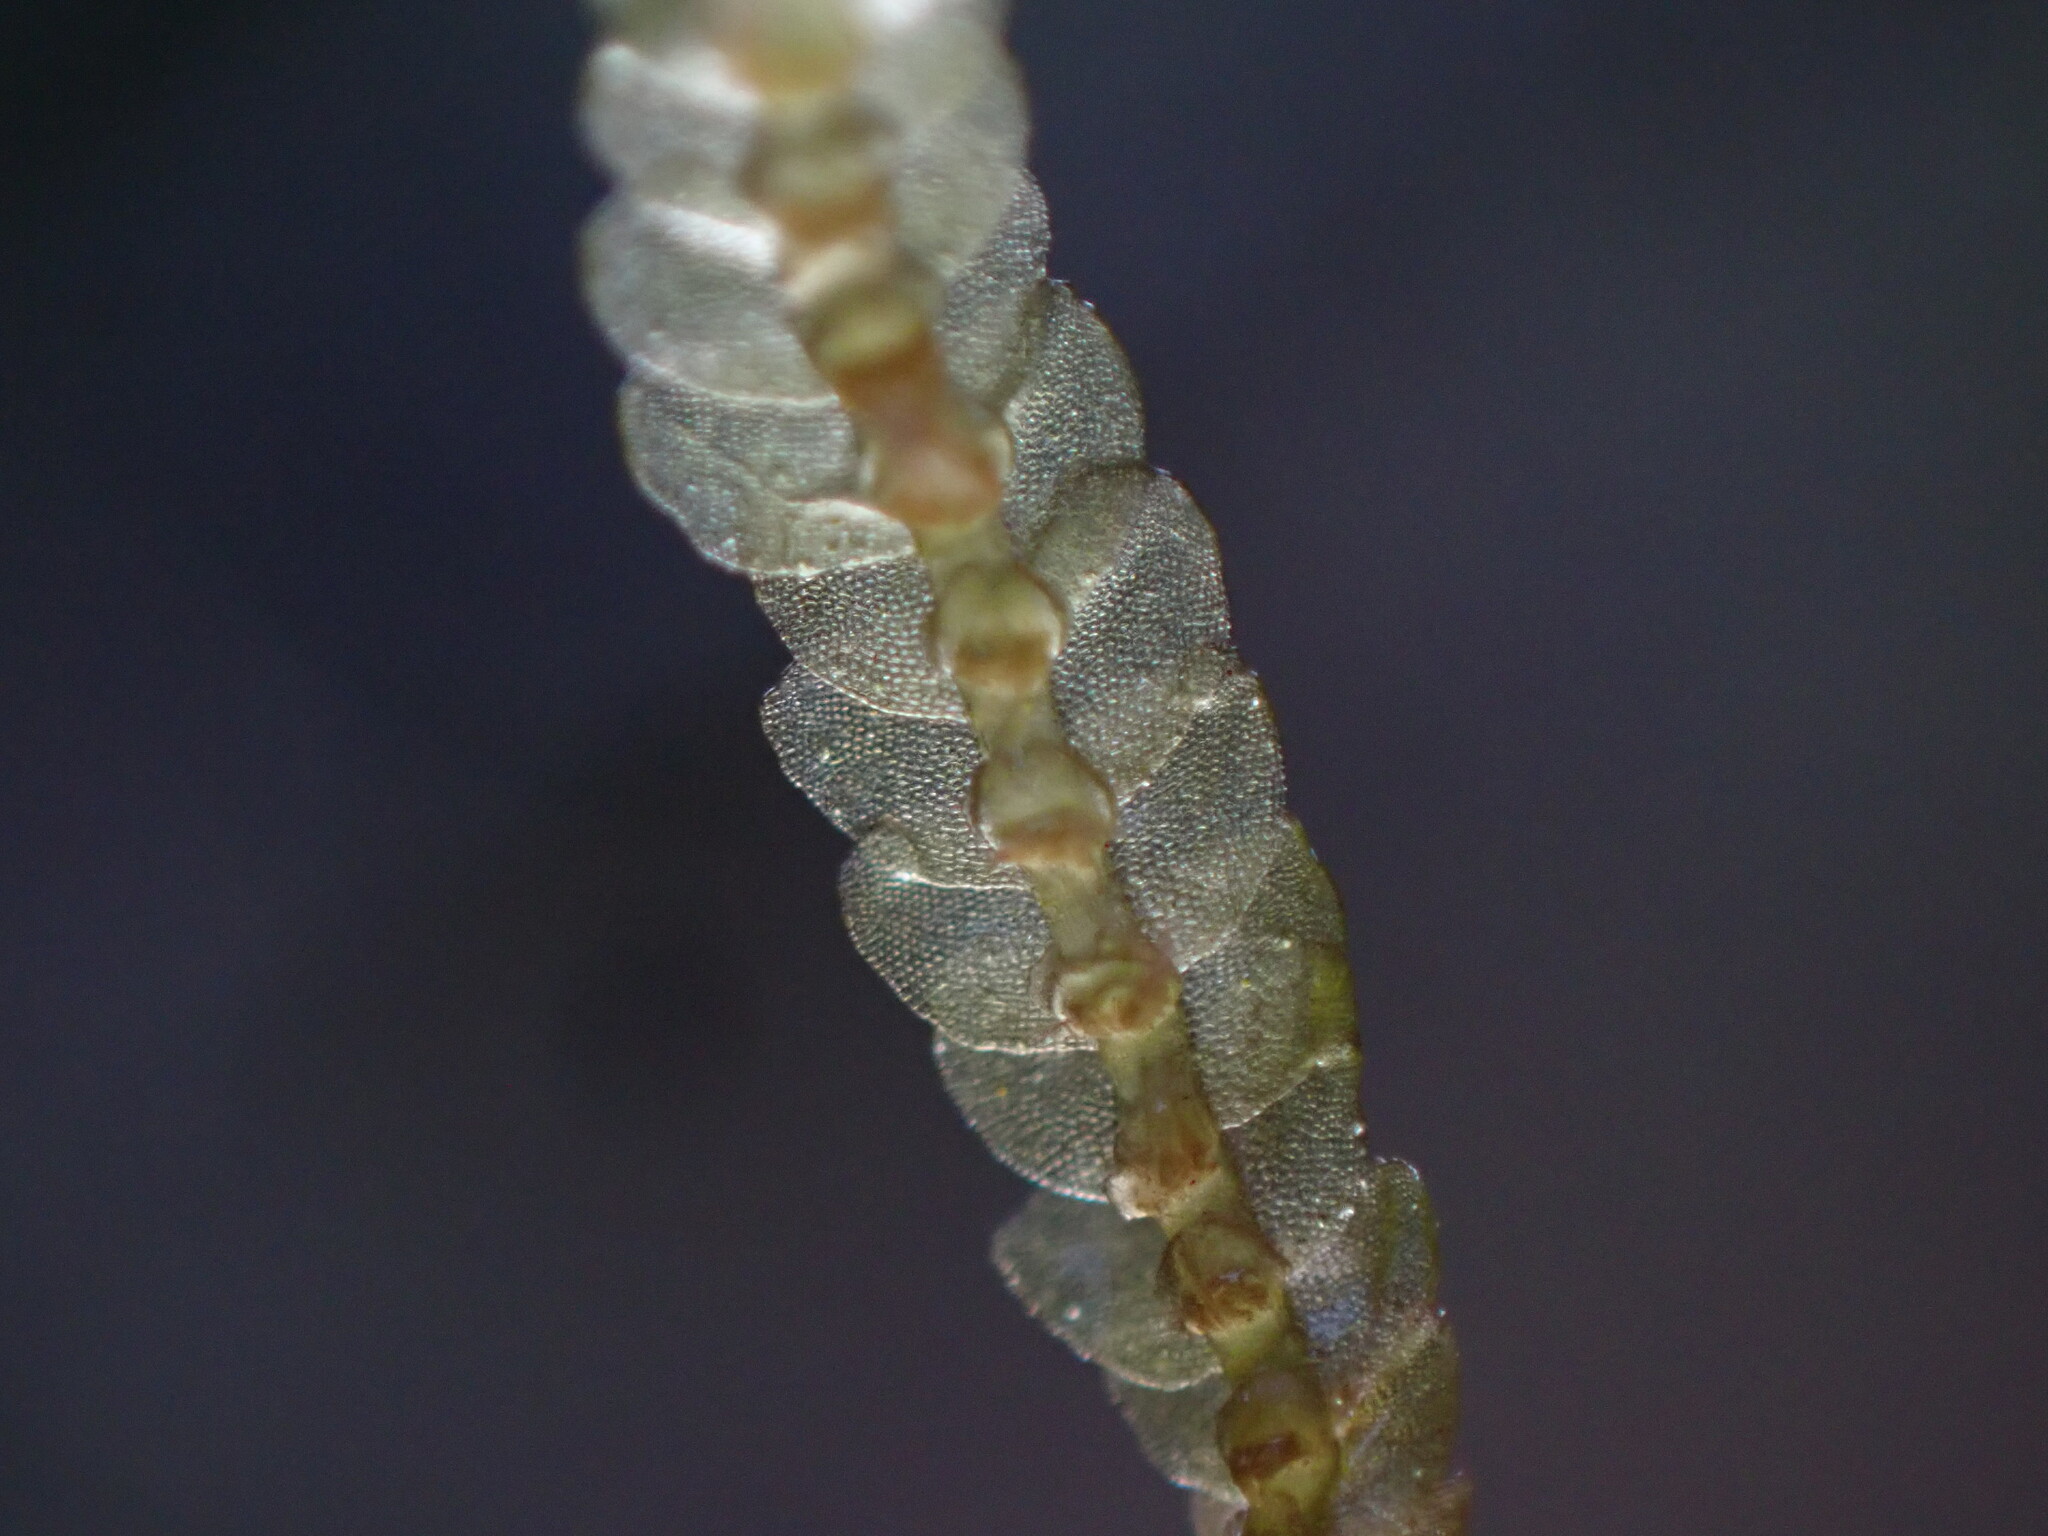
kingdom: Plantae
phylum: Marchantiophyta
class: Jungermanniopsida
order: Jungermanniales
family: Calypogeiaceae
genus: Calypogeia
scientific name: Calypogeia muelleriana
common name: Mueller s pouchwort
